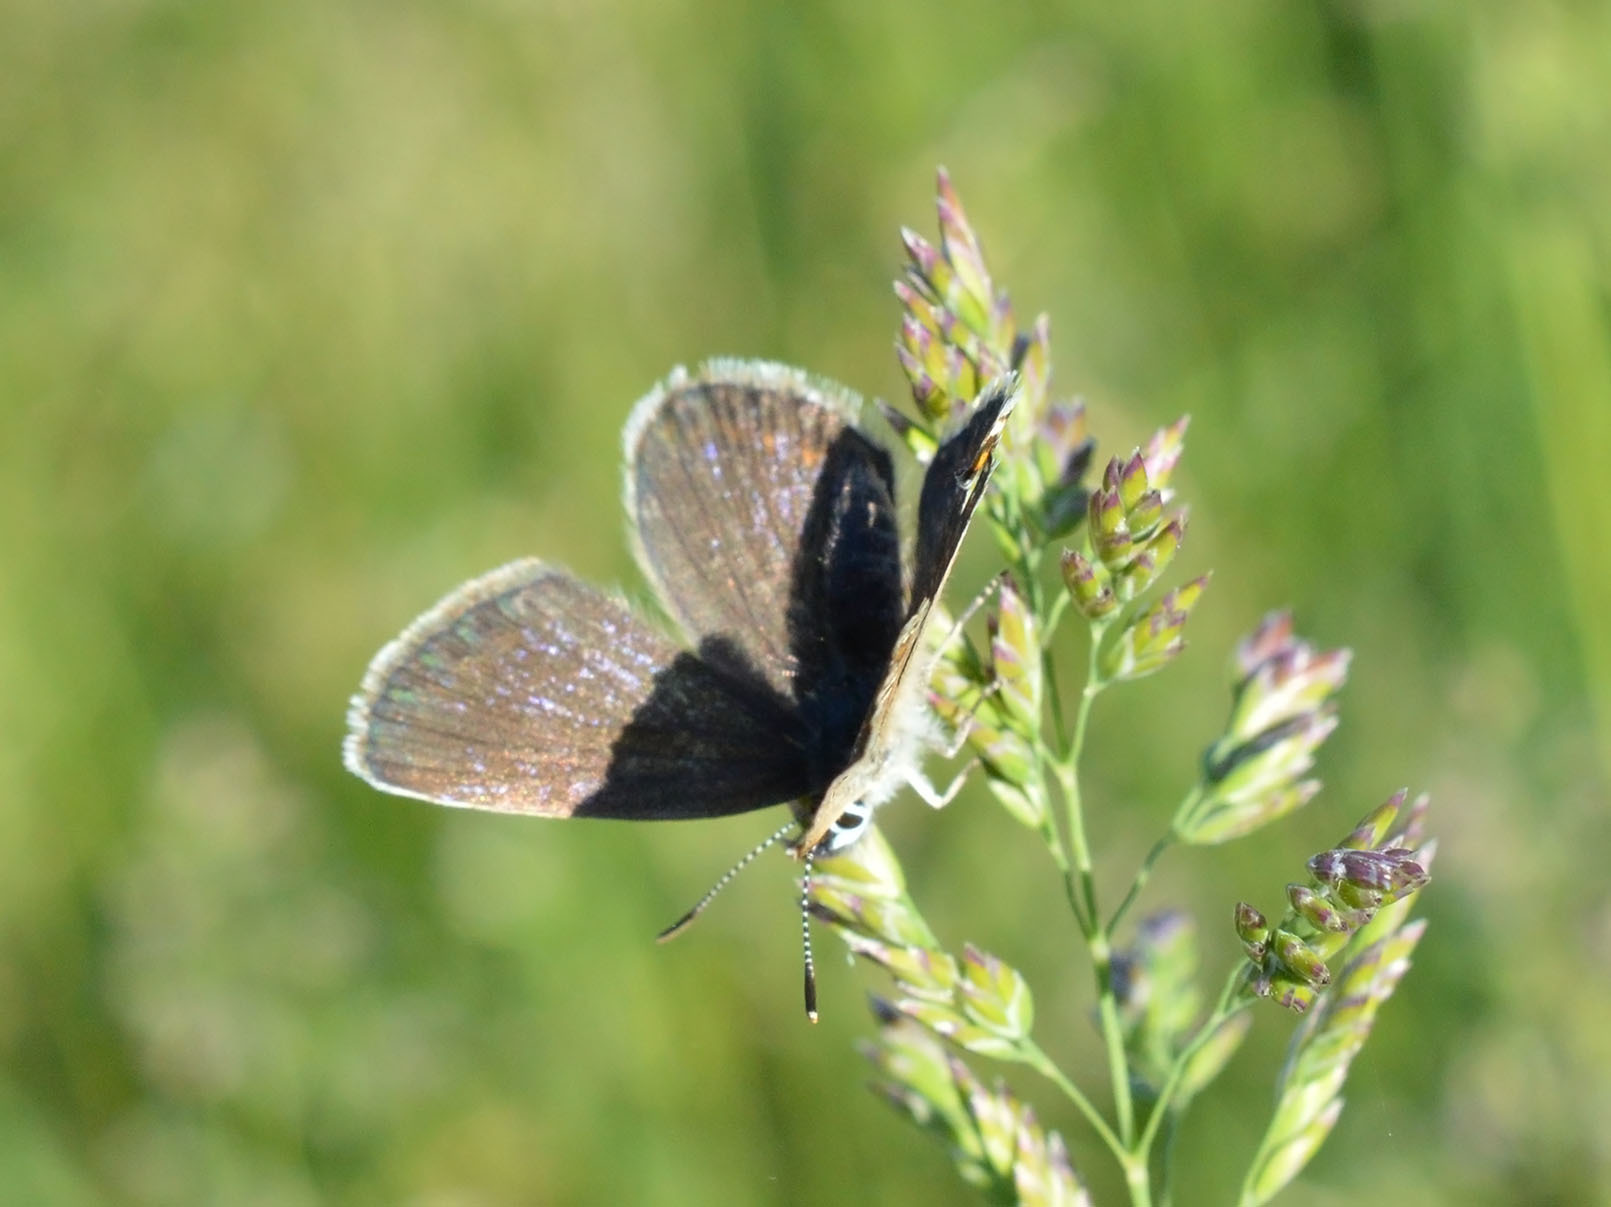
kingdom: Animalia
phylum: Arthropoda
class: Insecta
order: Lepidoptera
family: Lycaenidae
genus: Plebejus
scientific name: Plebejus argus
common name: Silver-studded blue
